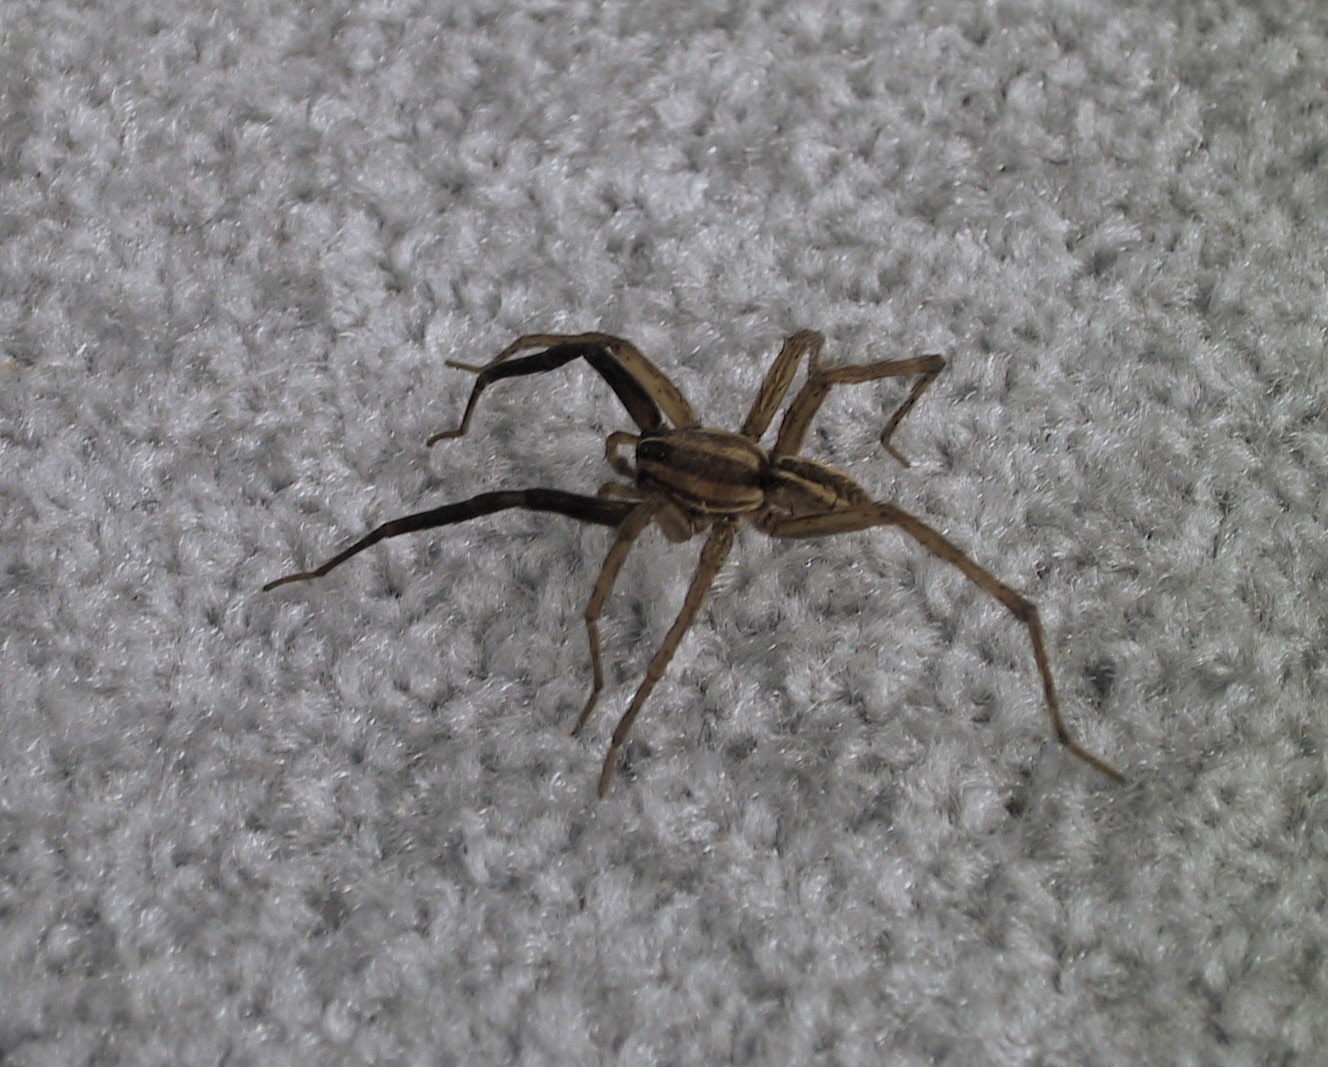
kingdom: Animalia
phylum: Arthropoda
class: Arachnida
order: Araneae
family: Lycosidae
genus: Rabidosa
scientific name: Rabidosa rabida
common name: Rabid wolf spider
